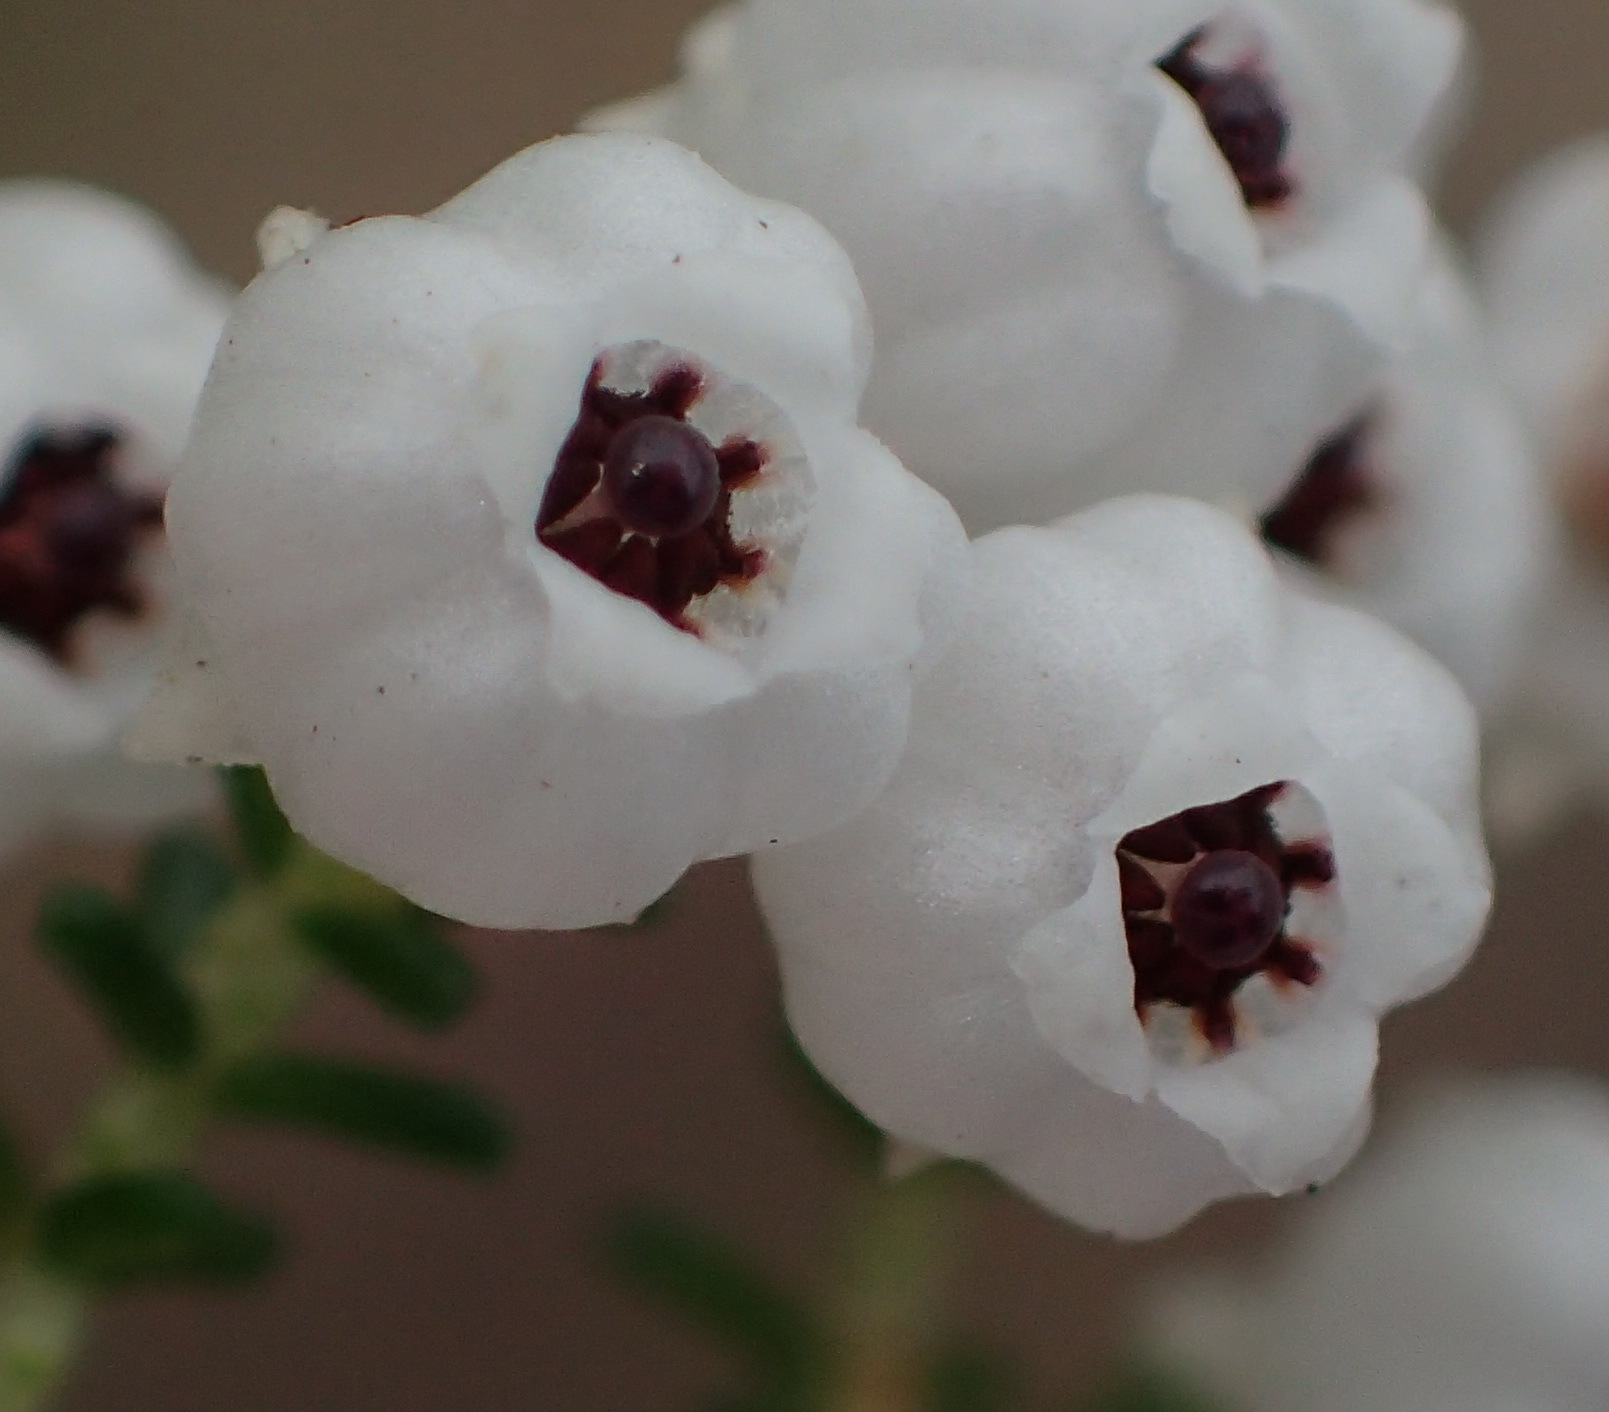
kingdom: Plantae
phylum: Tracheophyta
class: Magnoliopsida
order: Ericales
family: Ericaceae
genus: Erica
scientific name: Erica formosa
